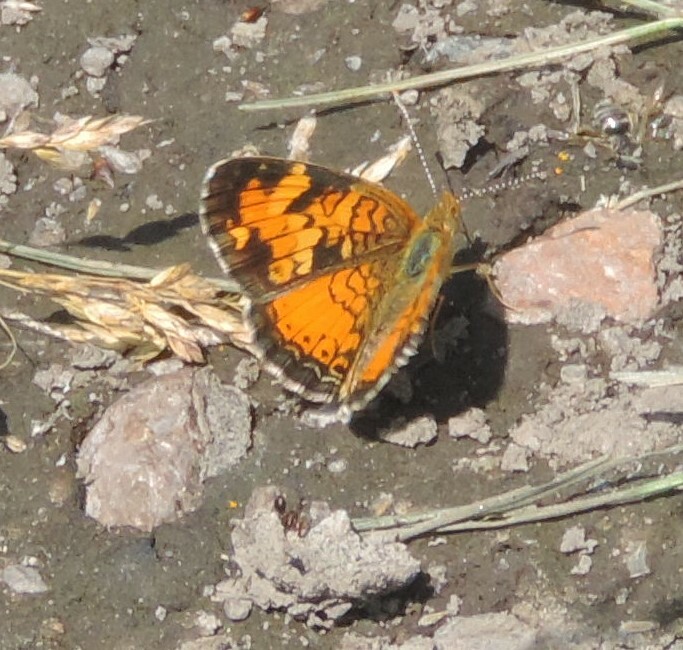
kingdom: Animalia
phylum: Arthropoda
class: Insecta
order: Lepidoptera
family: Nymphalidae
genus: Phyciodes
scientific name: Phyciodes tharos
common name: Pearl crescent
